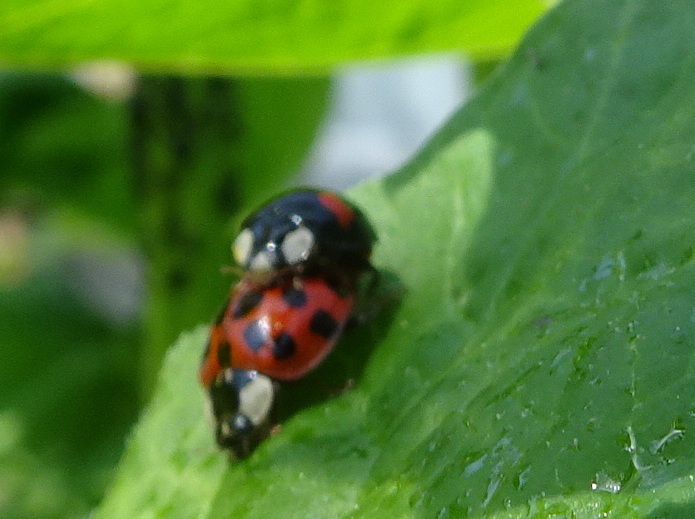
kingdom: Animalia
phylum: Arthropoda
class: Insecta
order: Coleoptera
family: Coccinellidae
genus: Harmonia
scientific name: Harmonia axyridis
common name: Harlequin ladybird
